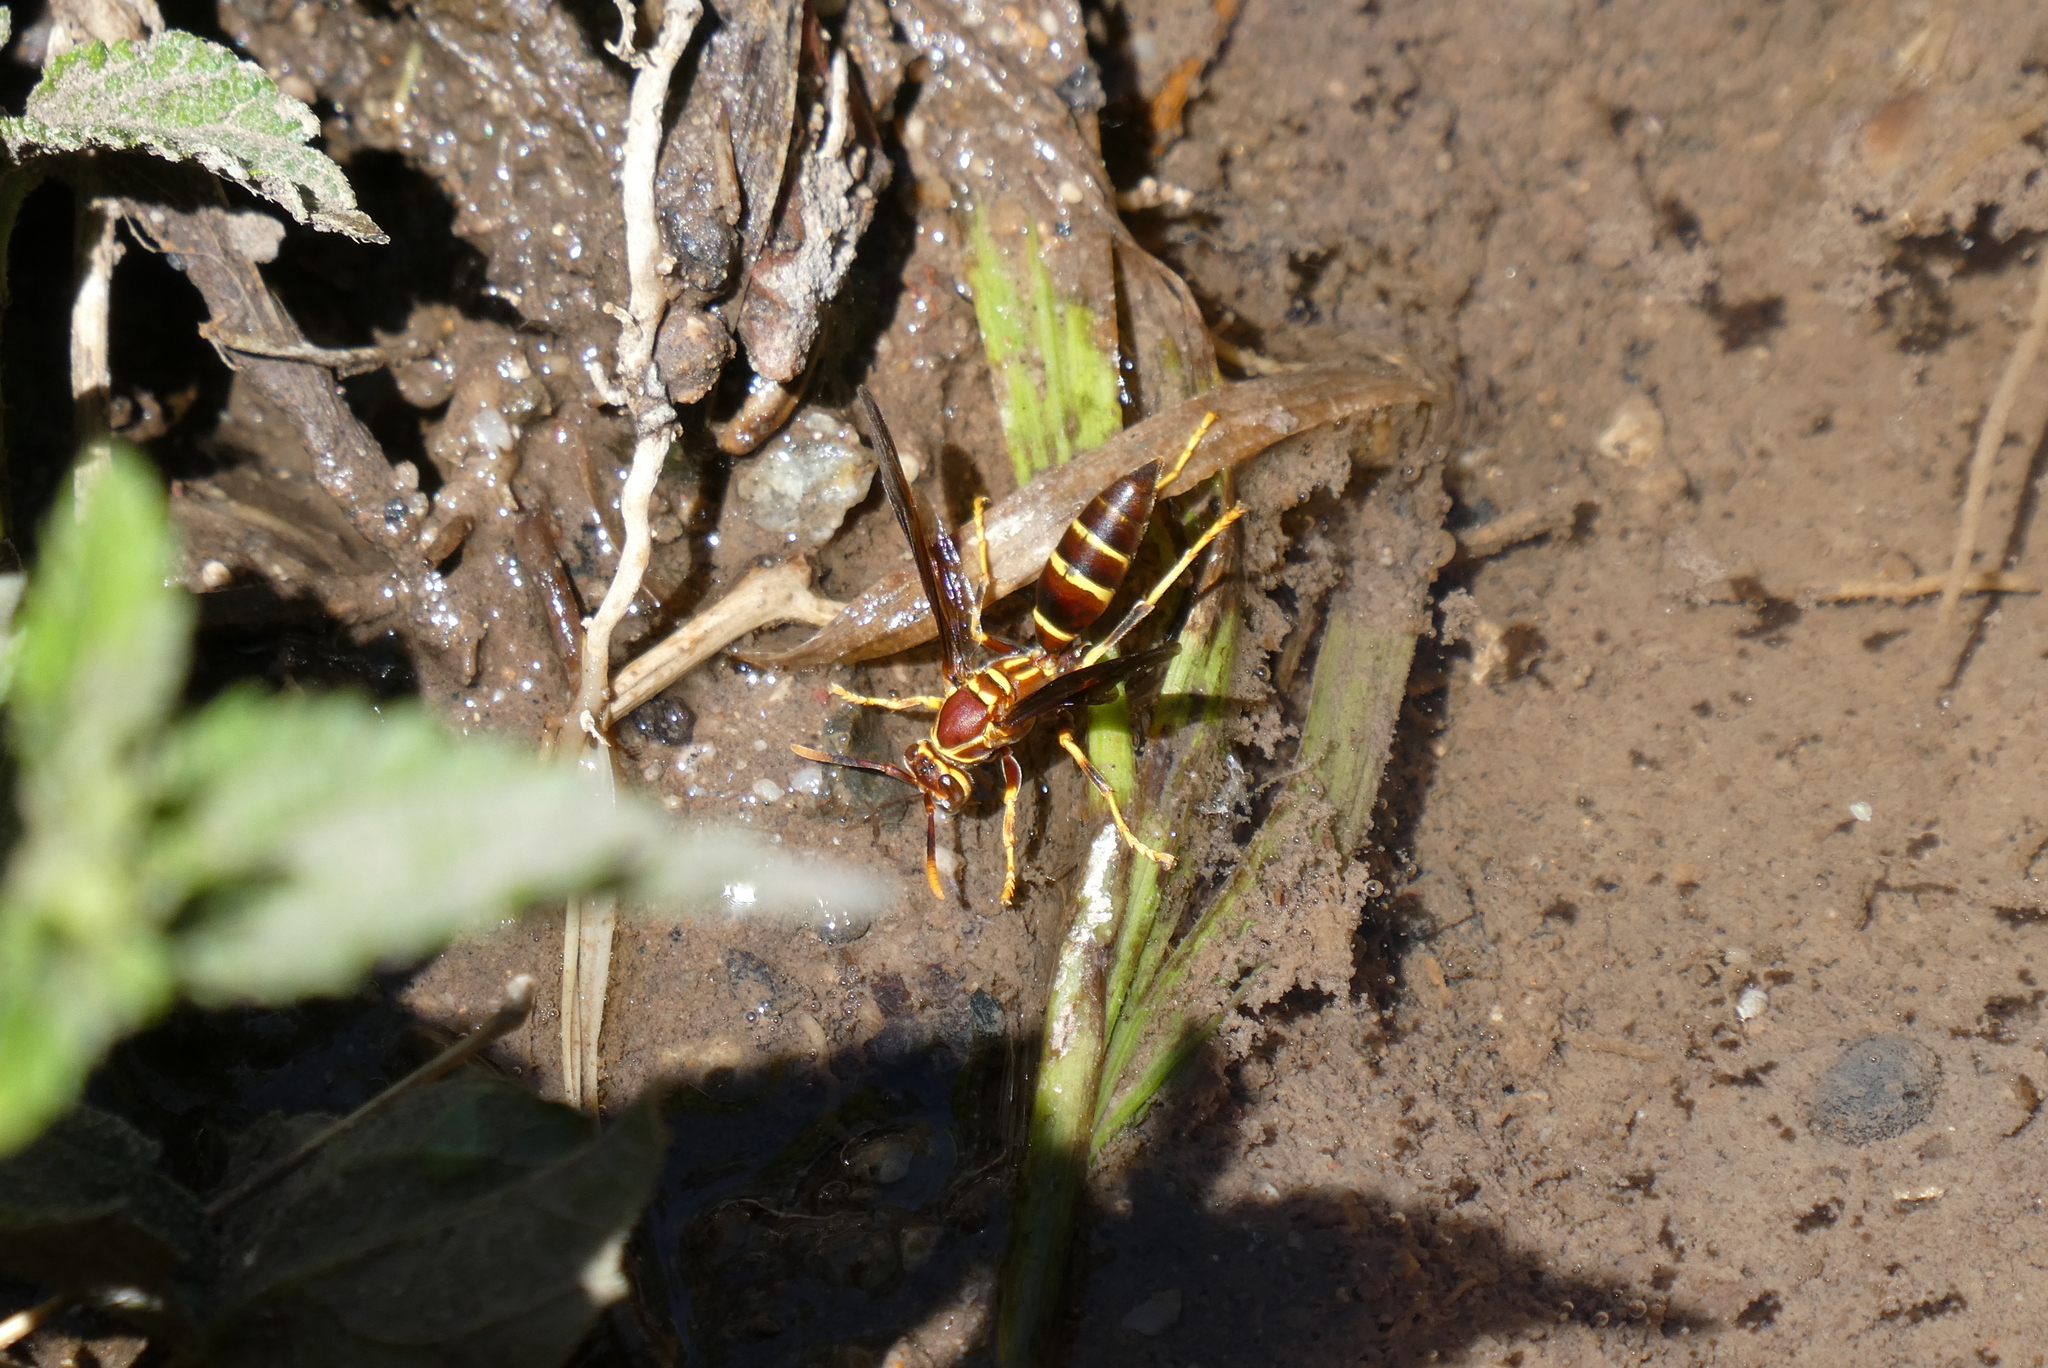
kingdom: Animalia
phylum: Arthropoda
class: Insecta
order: Hymenoptera
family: Eumenidae
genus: Polistes
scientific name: Polistes arizonensis
